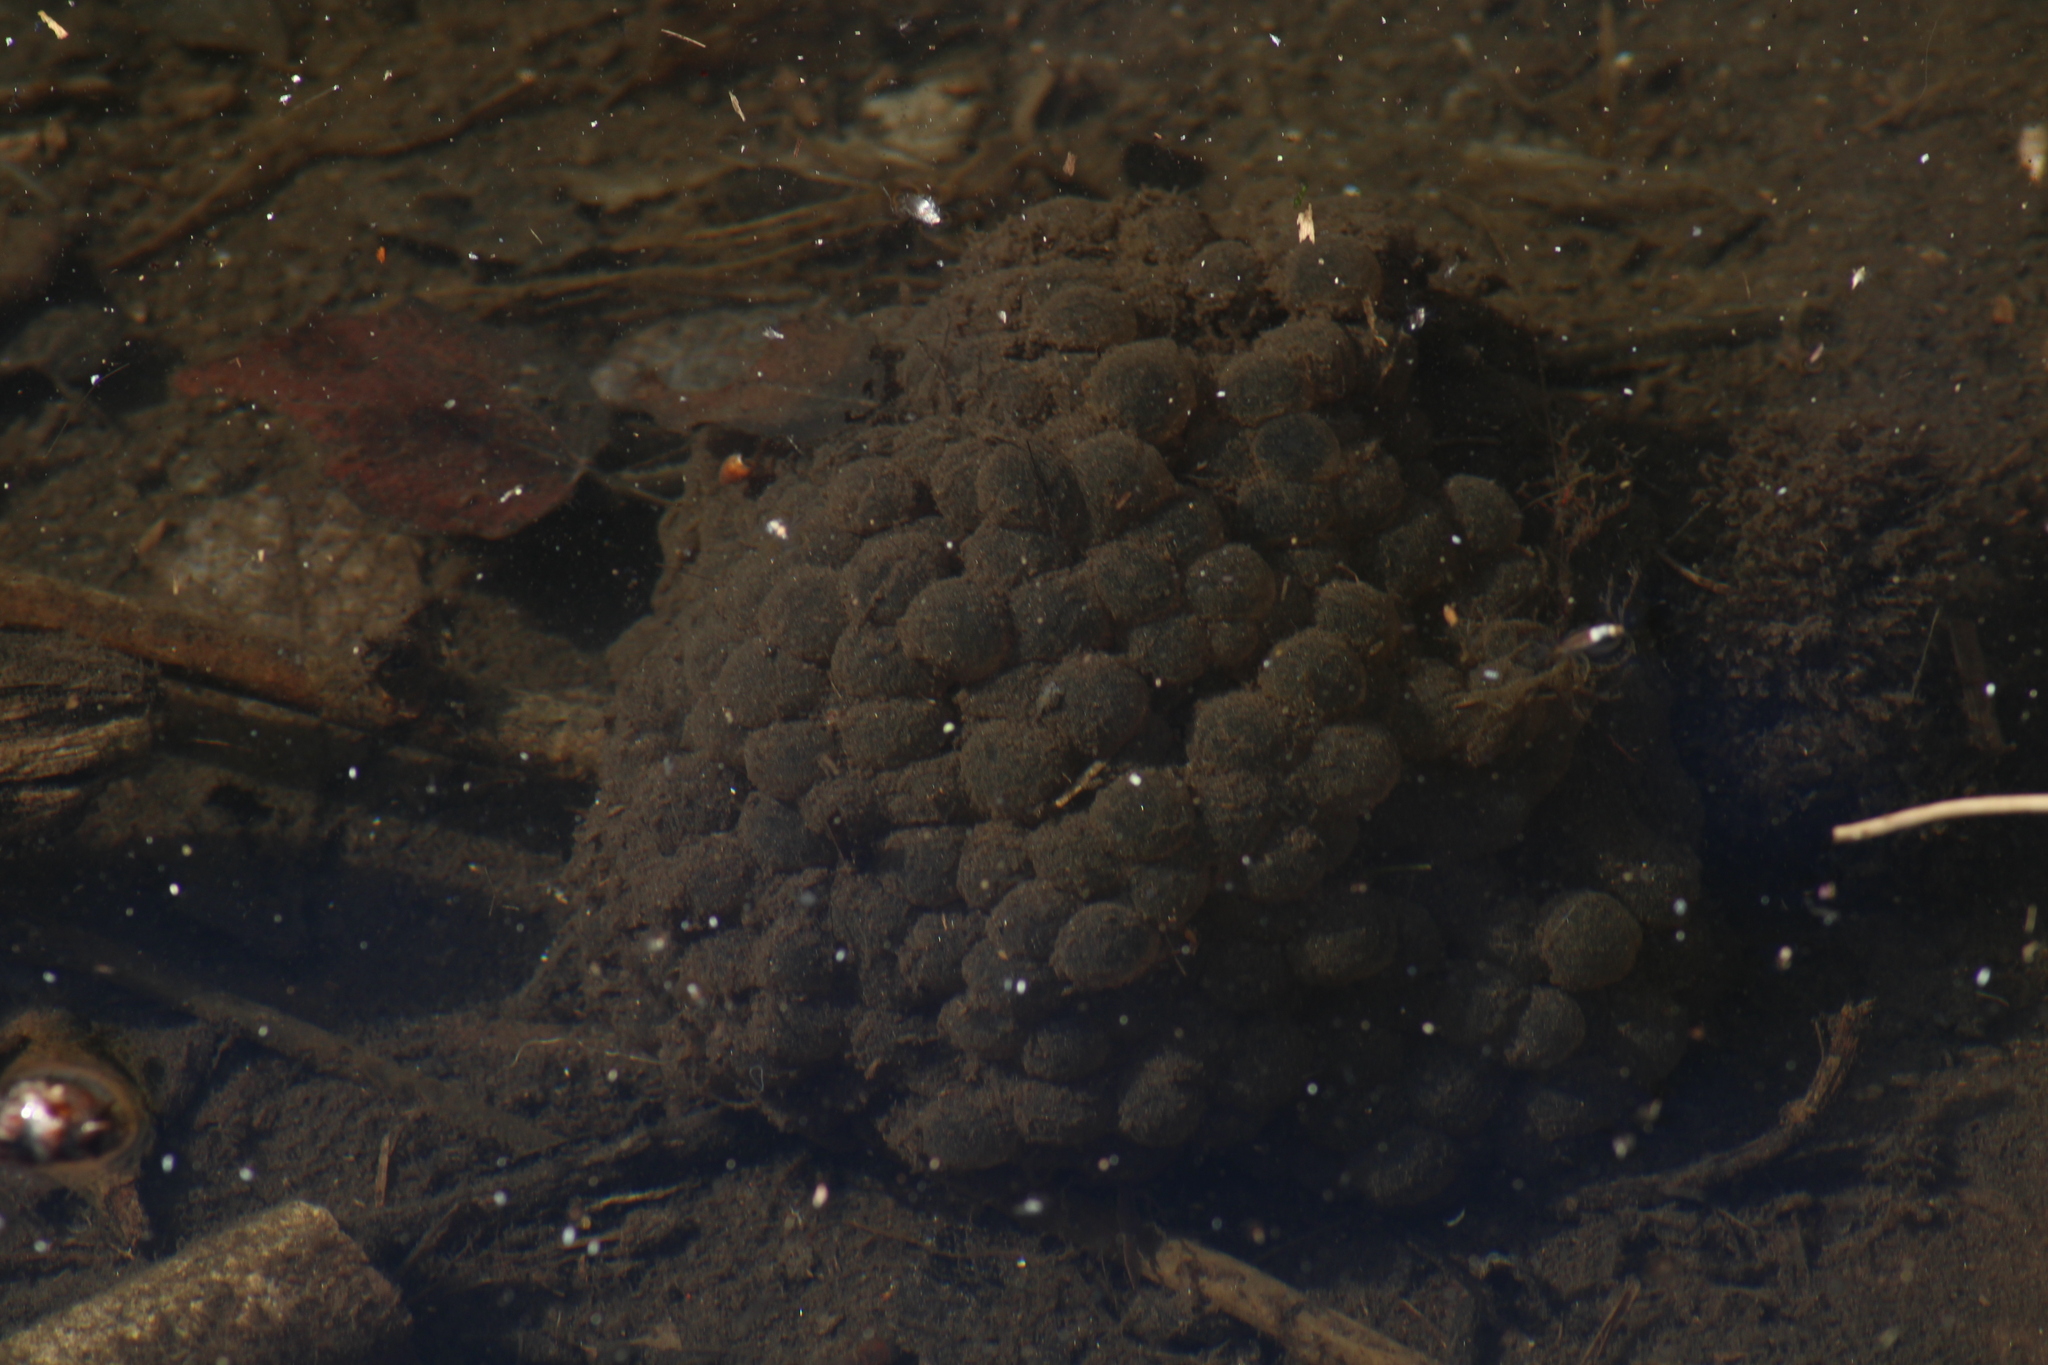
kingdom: Animalia
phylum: Chordata
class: Amphibia
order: Anura
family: Ranidae
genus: Rana
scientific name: Rana dalmatina
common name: Agile frog
